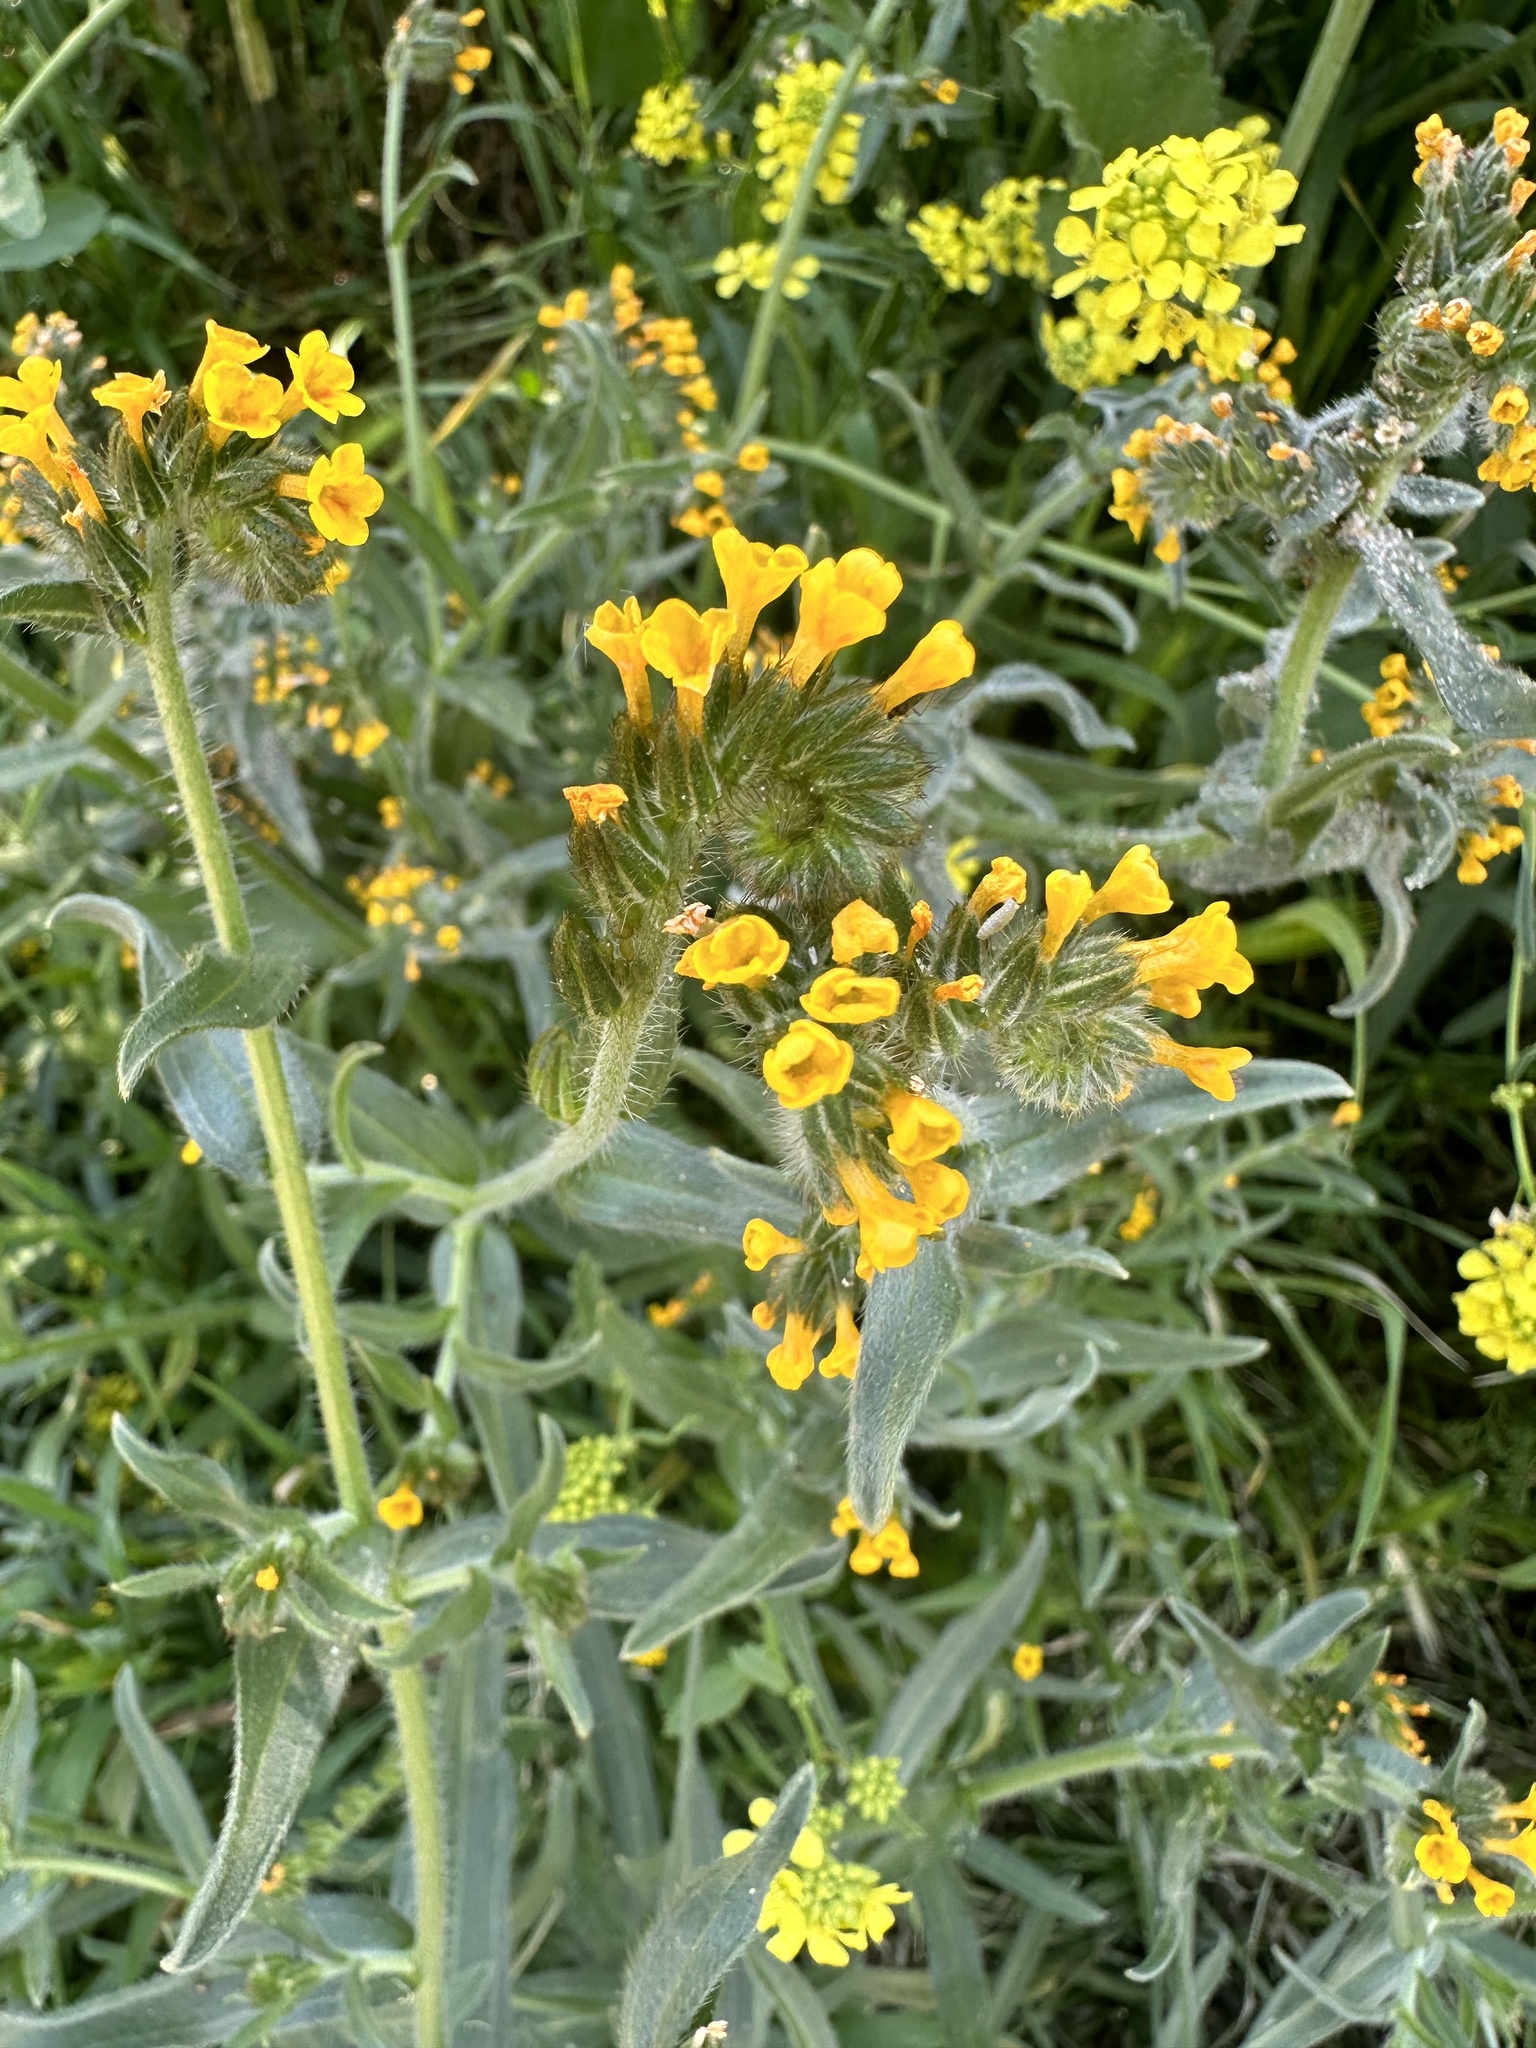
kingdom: Plantae
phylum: Tracheophyta
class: Magnoliopsida
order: Boraginales
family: Boraginaceae
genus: Amsinckia
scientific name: Amsinckia calycina
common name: Hairy fiddleneck
